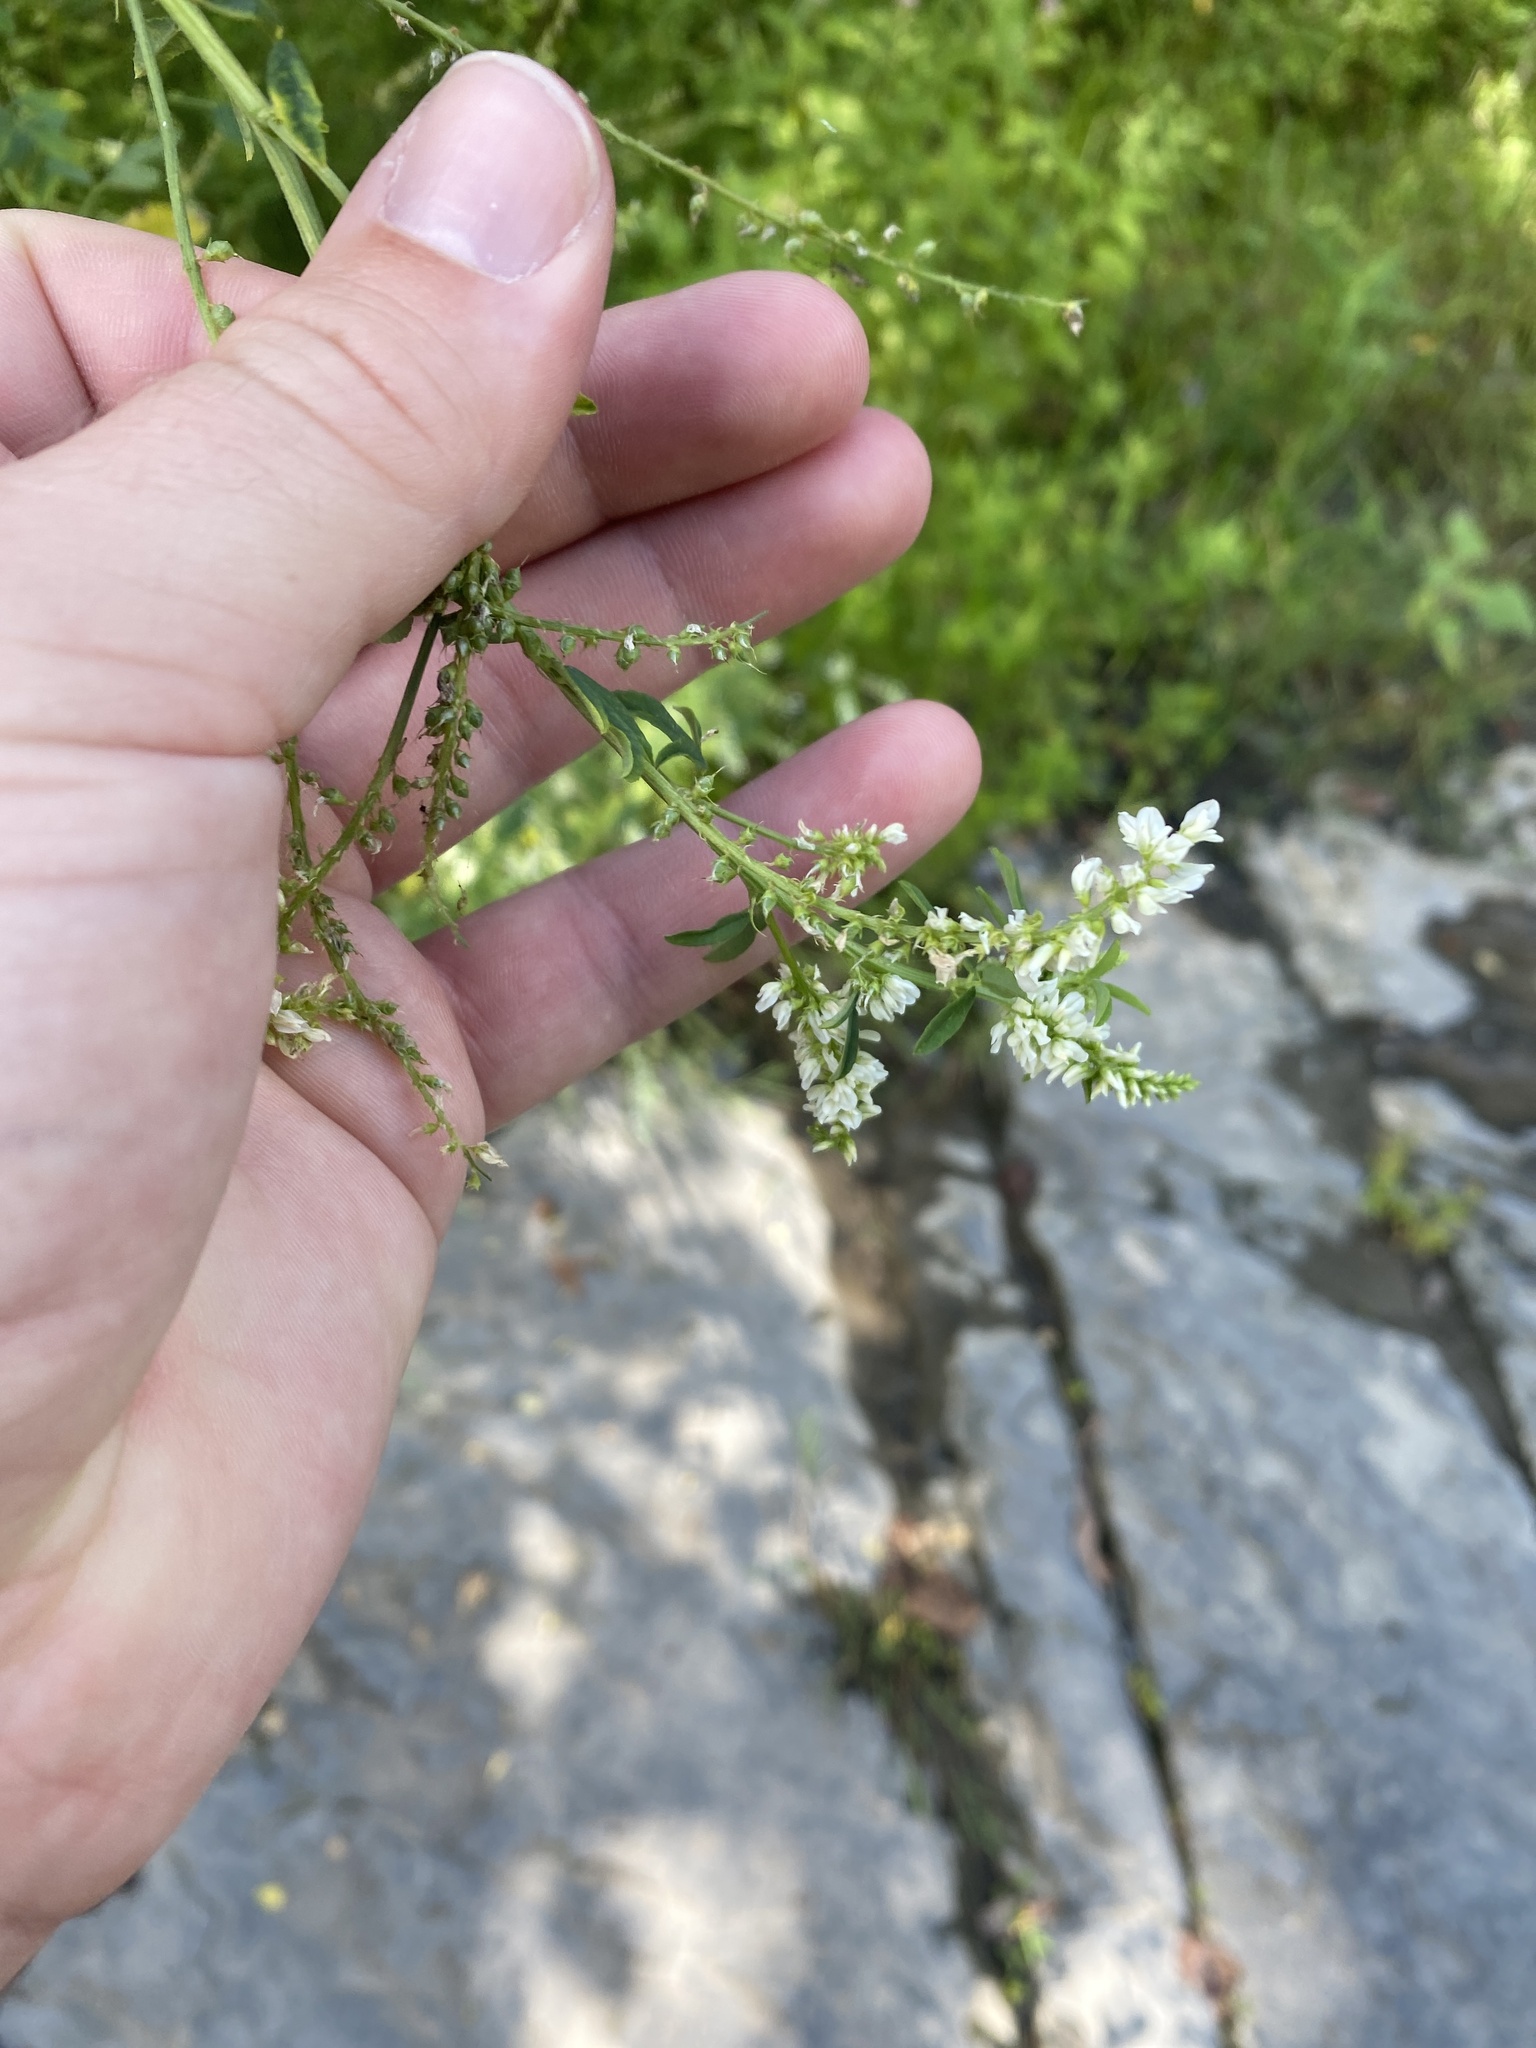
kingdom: Plantae
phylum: Tracheophyta
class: Magnoliopsida
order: Fabales
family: Fabaceae
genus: Melilotus
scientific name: Melilotus albus
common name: White melilot
